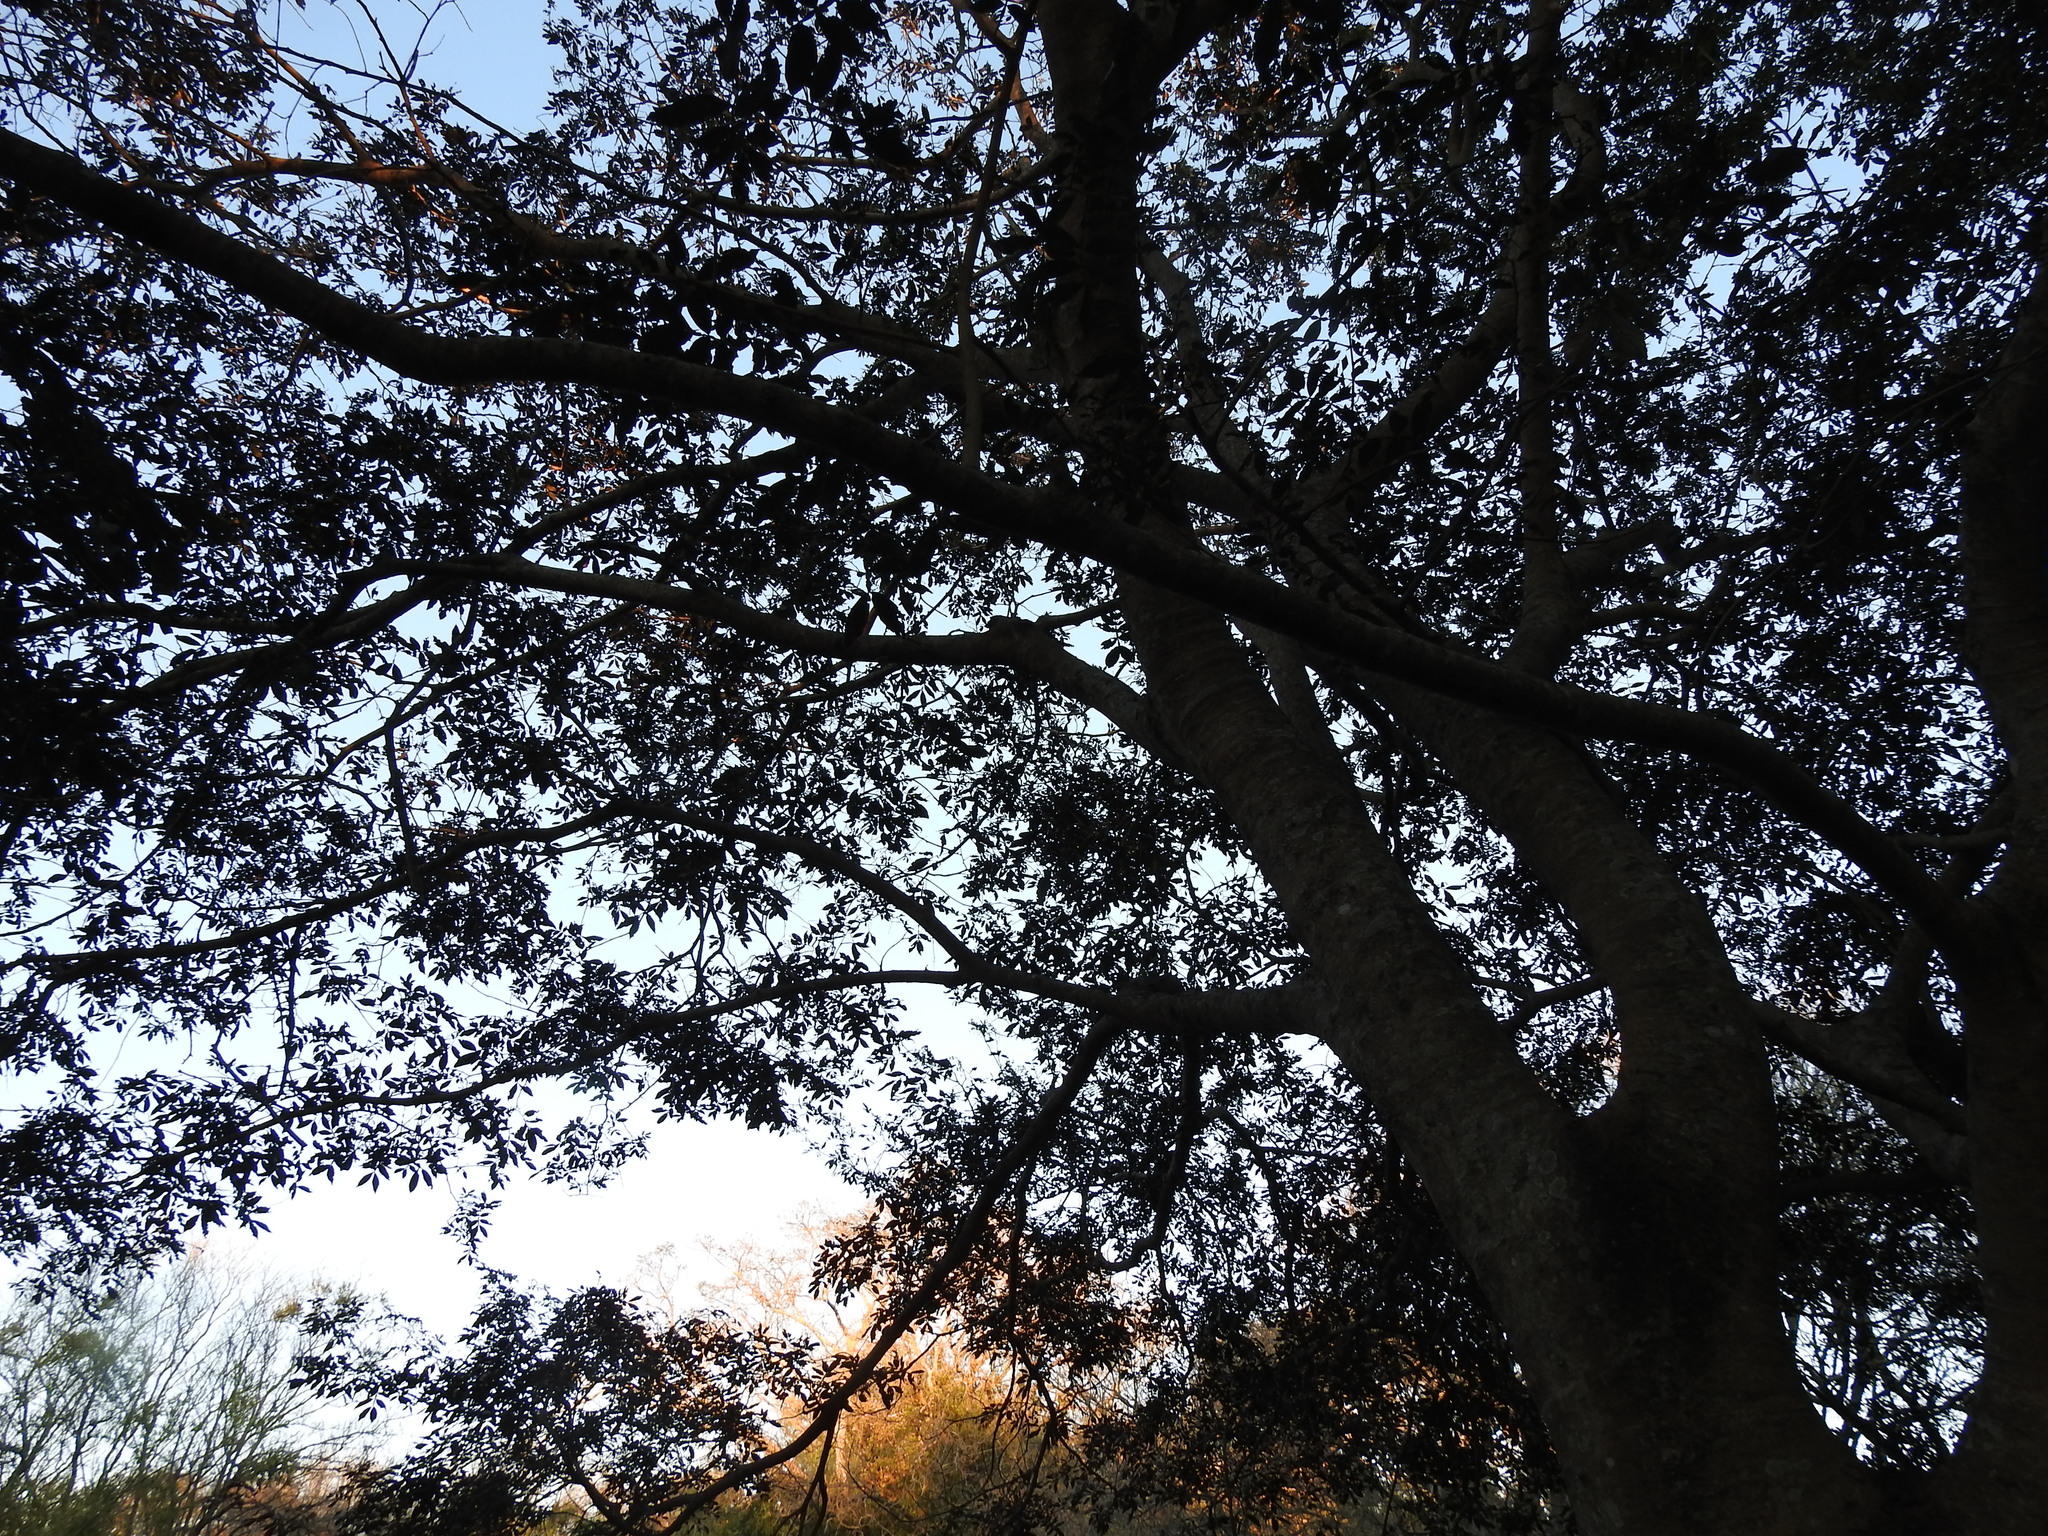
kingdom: Plantae
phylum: Tracheophyta
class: Magnoliopsida
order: Fabales
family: Fabaceae
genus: Inga
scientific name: Inga uraguensis
